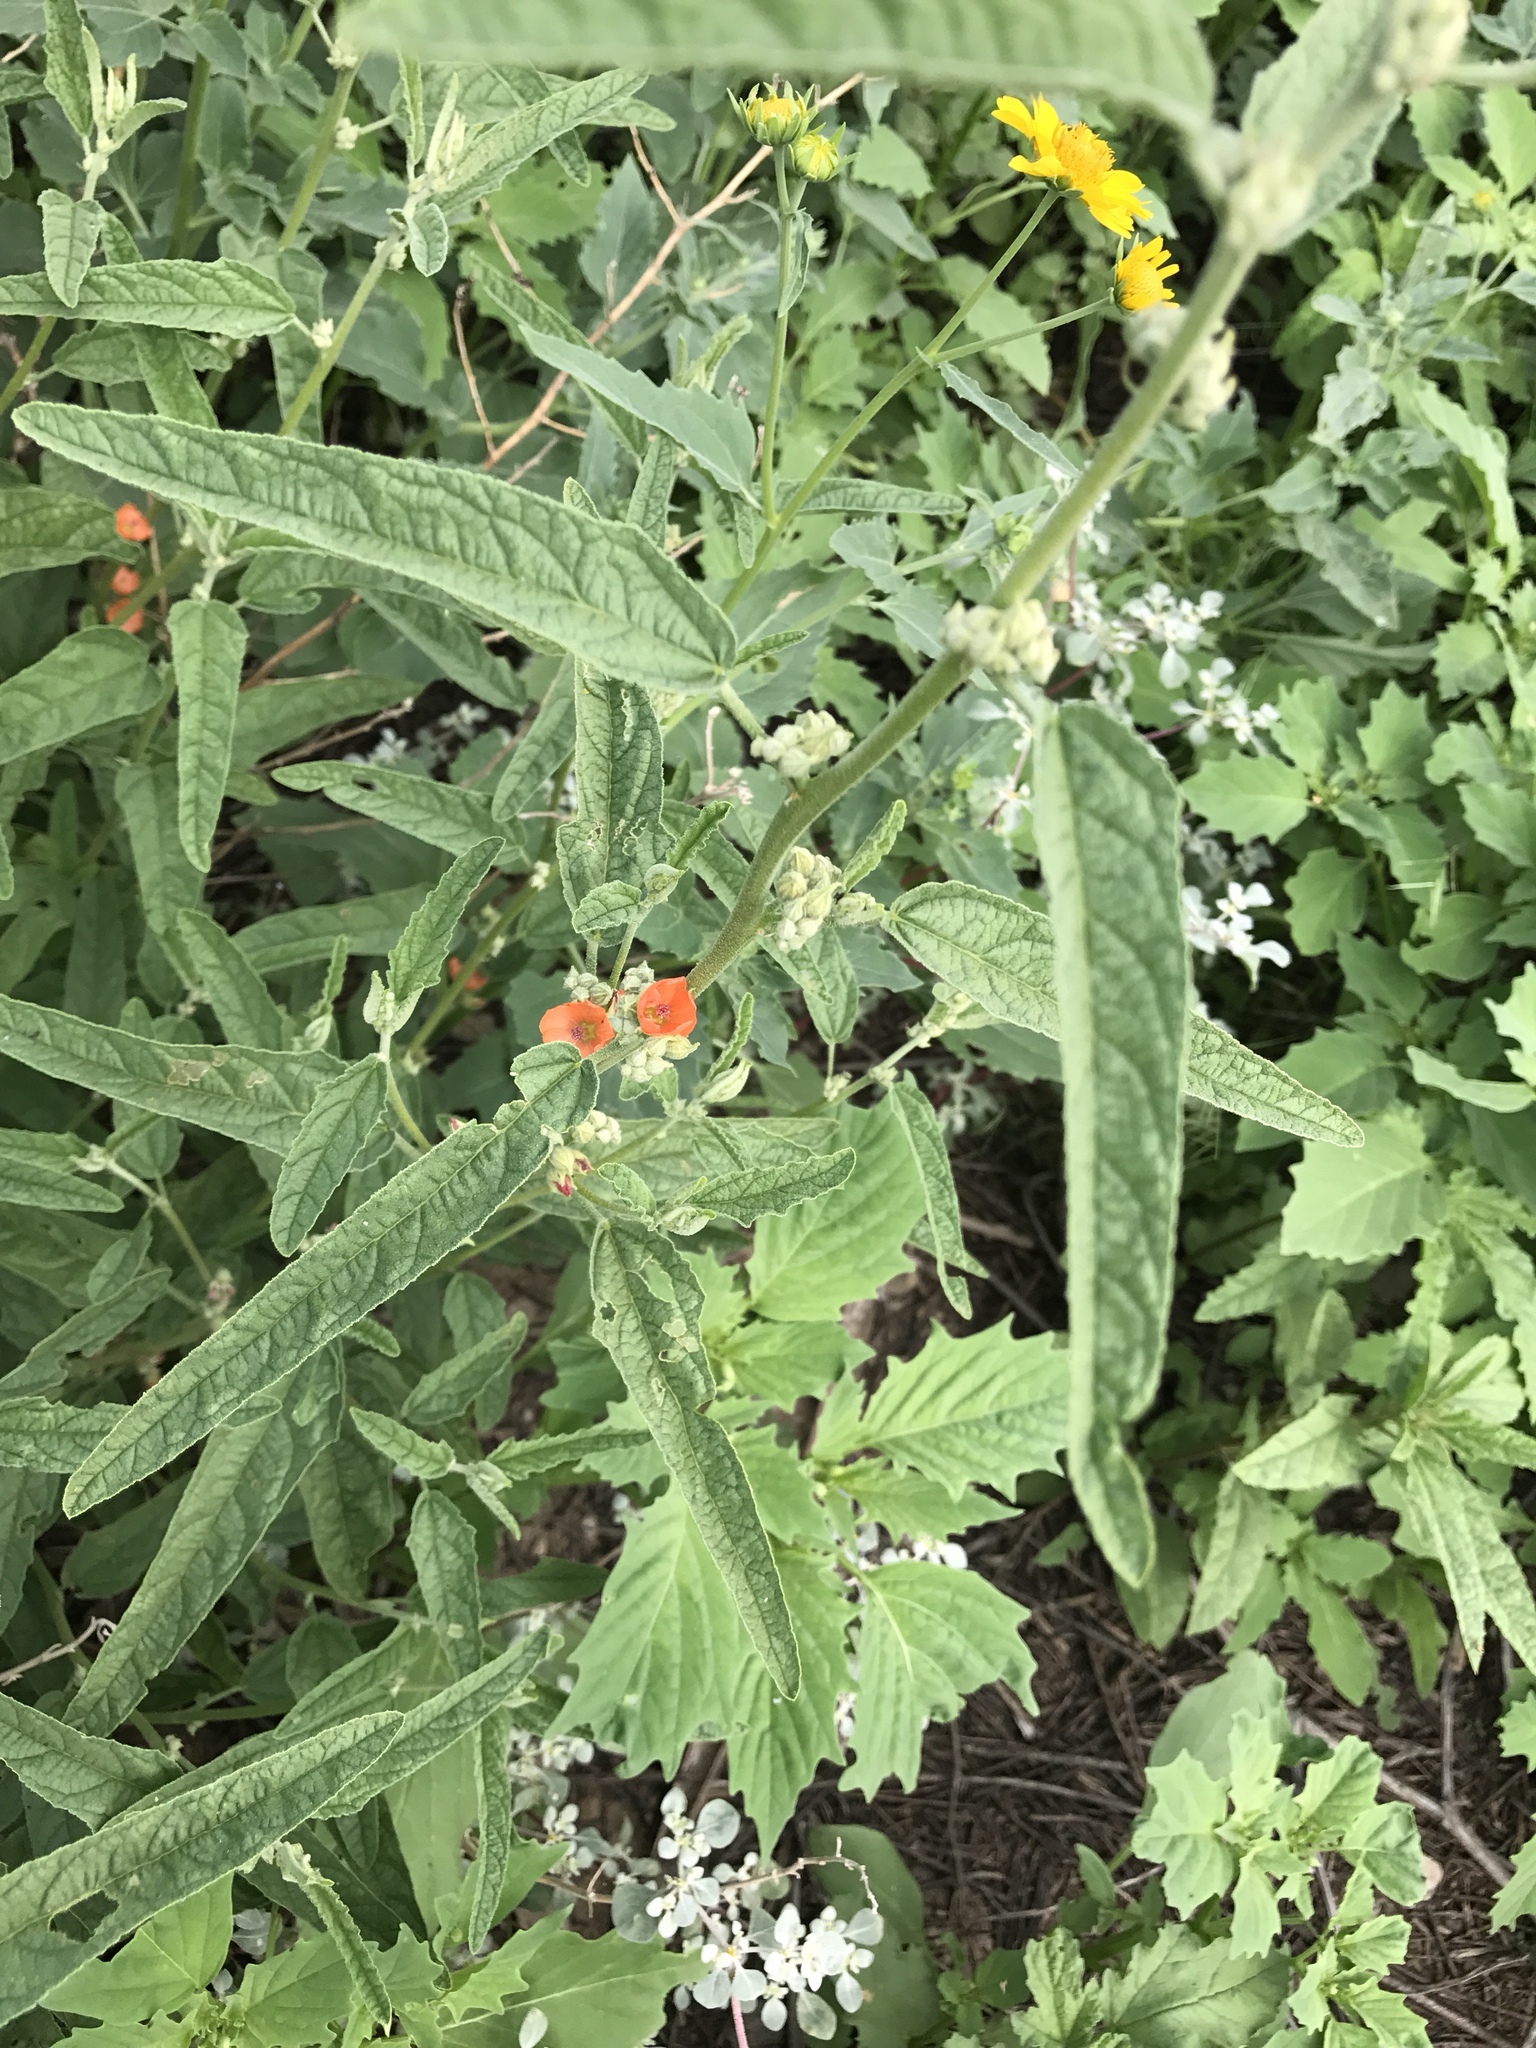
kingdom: Plantae
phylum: Tracheophyta
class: Magnoliopsida
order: Malvales
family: Malvaceae
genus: Sphaeralcea
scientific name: Sphaeralcea angustifolia
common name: Copper globe-mallow
